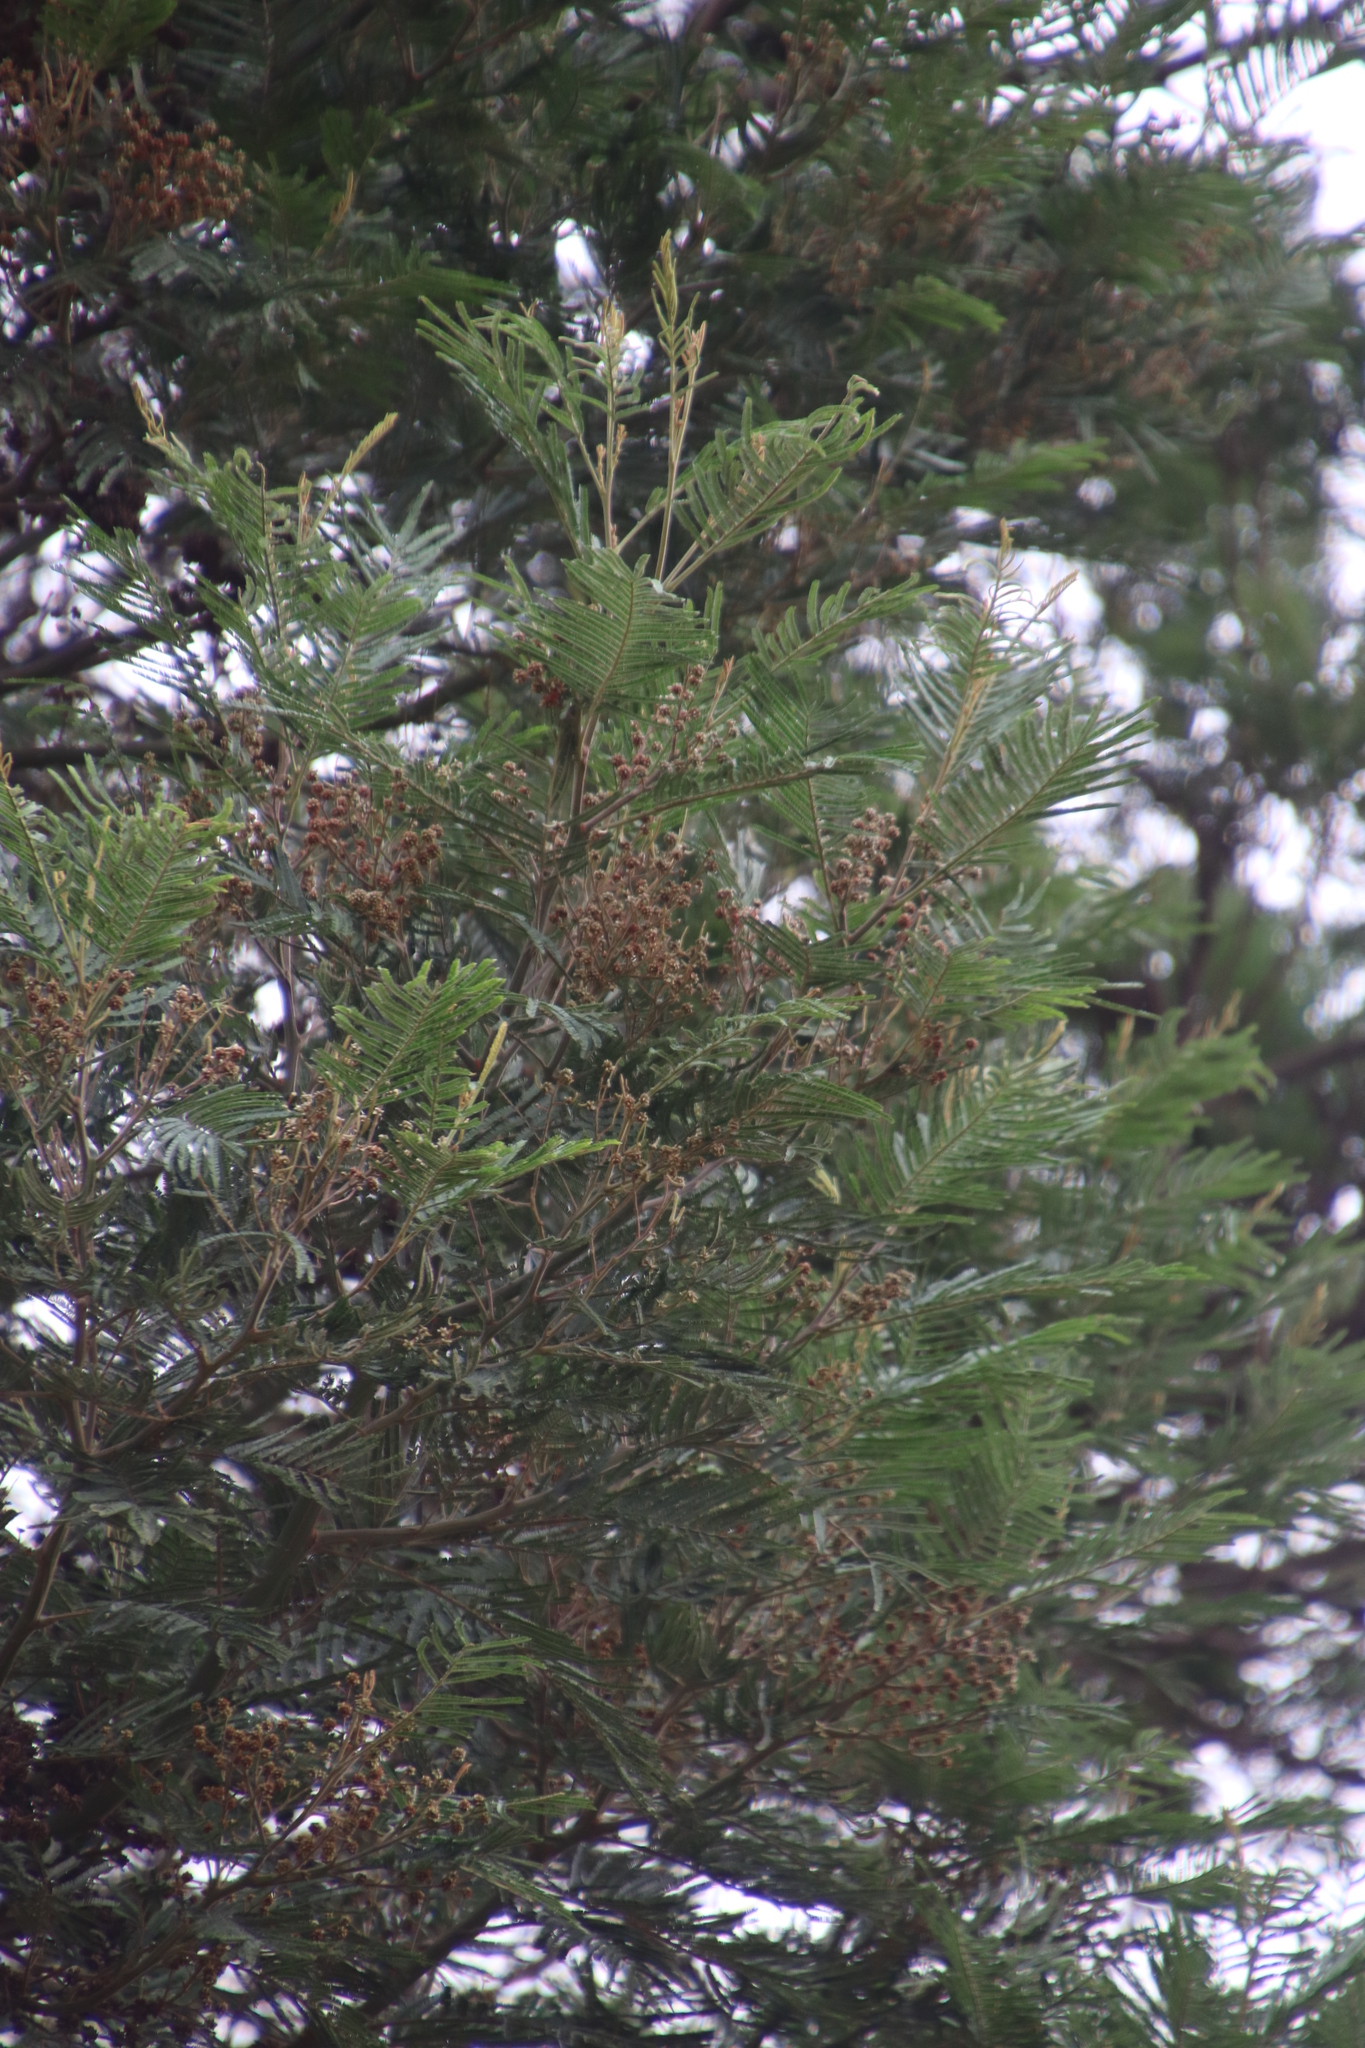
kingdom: Plantae
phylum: Tracheophyta
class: Magnoliopsida
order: Fabales
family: Fabaceae
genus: Acacia
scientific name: Acacia mearnsii
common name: Black wattle
